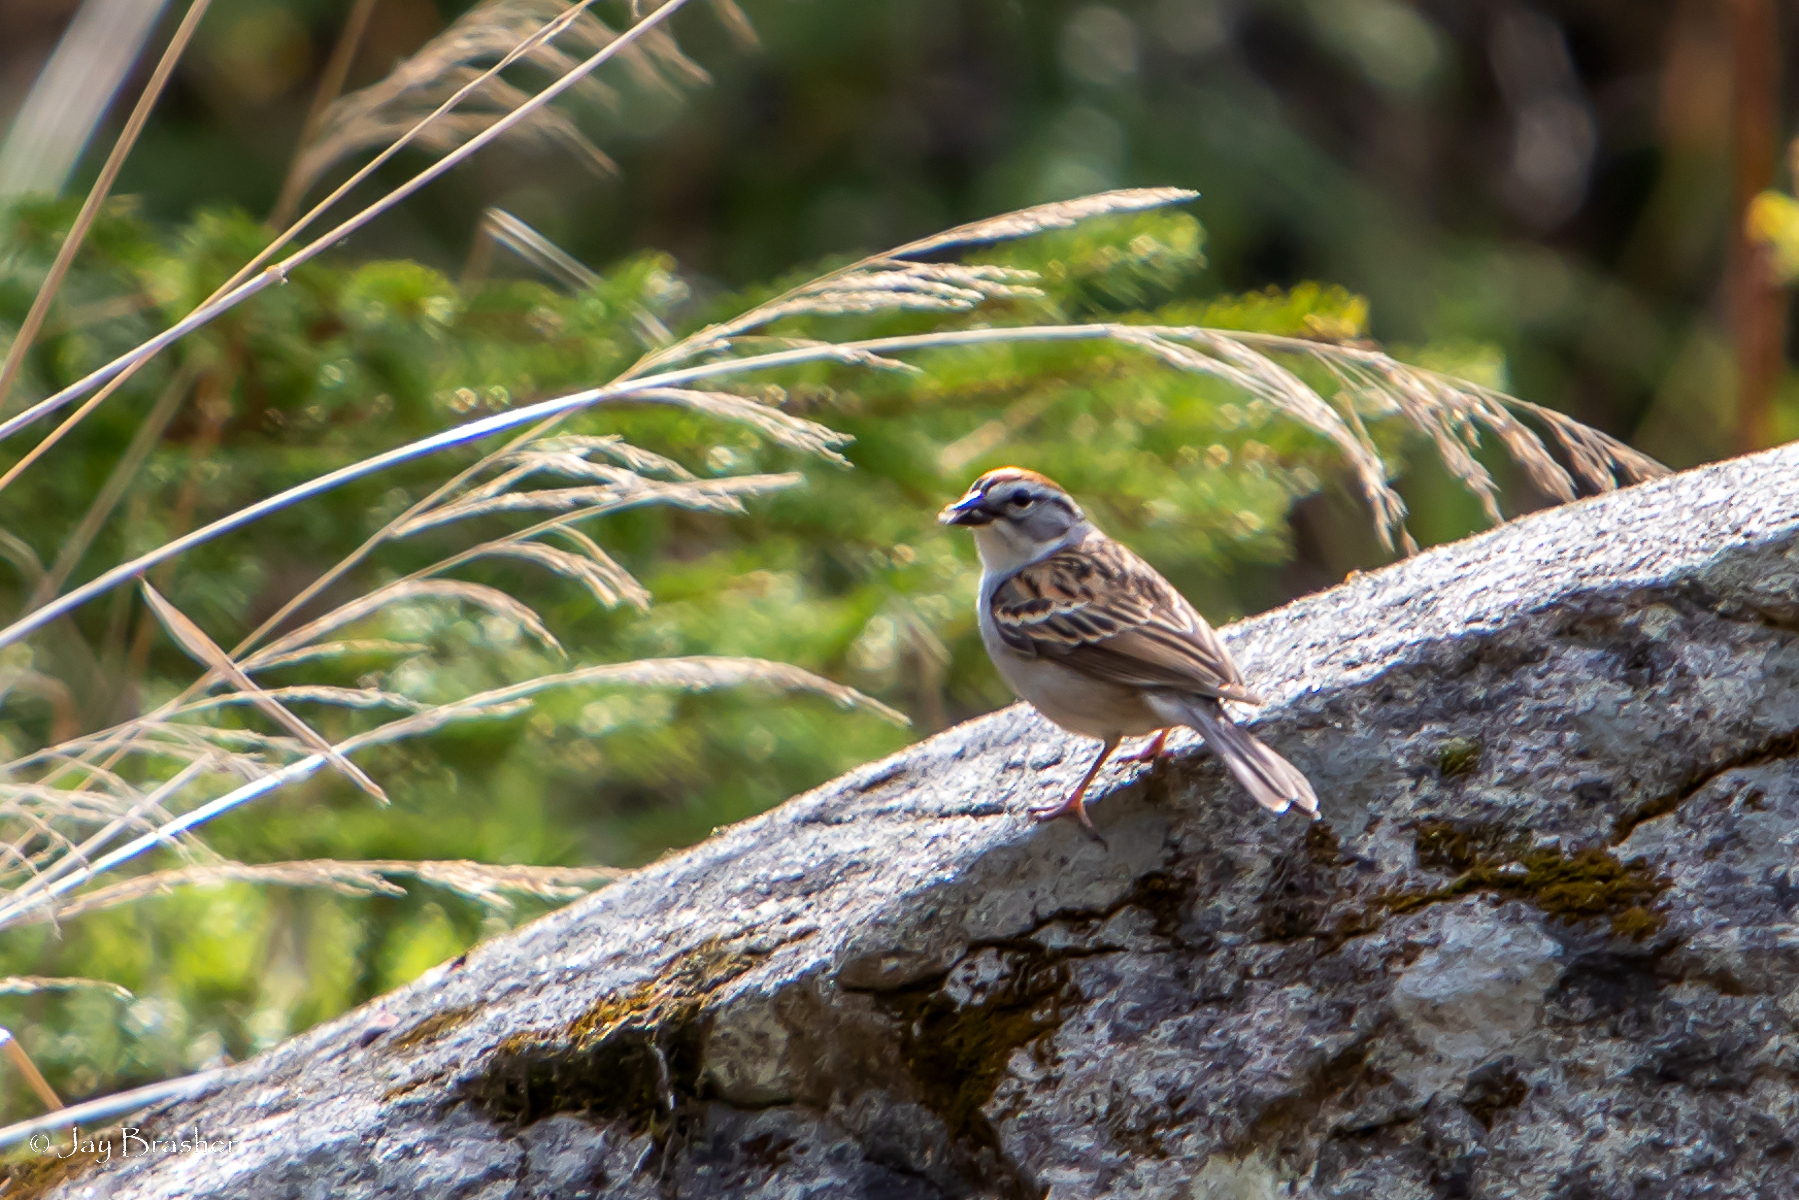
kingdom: Animalia
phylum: Chordata
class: Aves
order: Passeriformes
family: Passerellidae
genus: Spizella
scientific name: Spizella passerina
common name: Chipping sparrow
